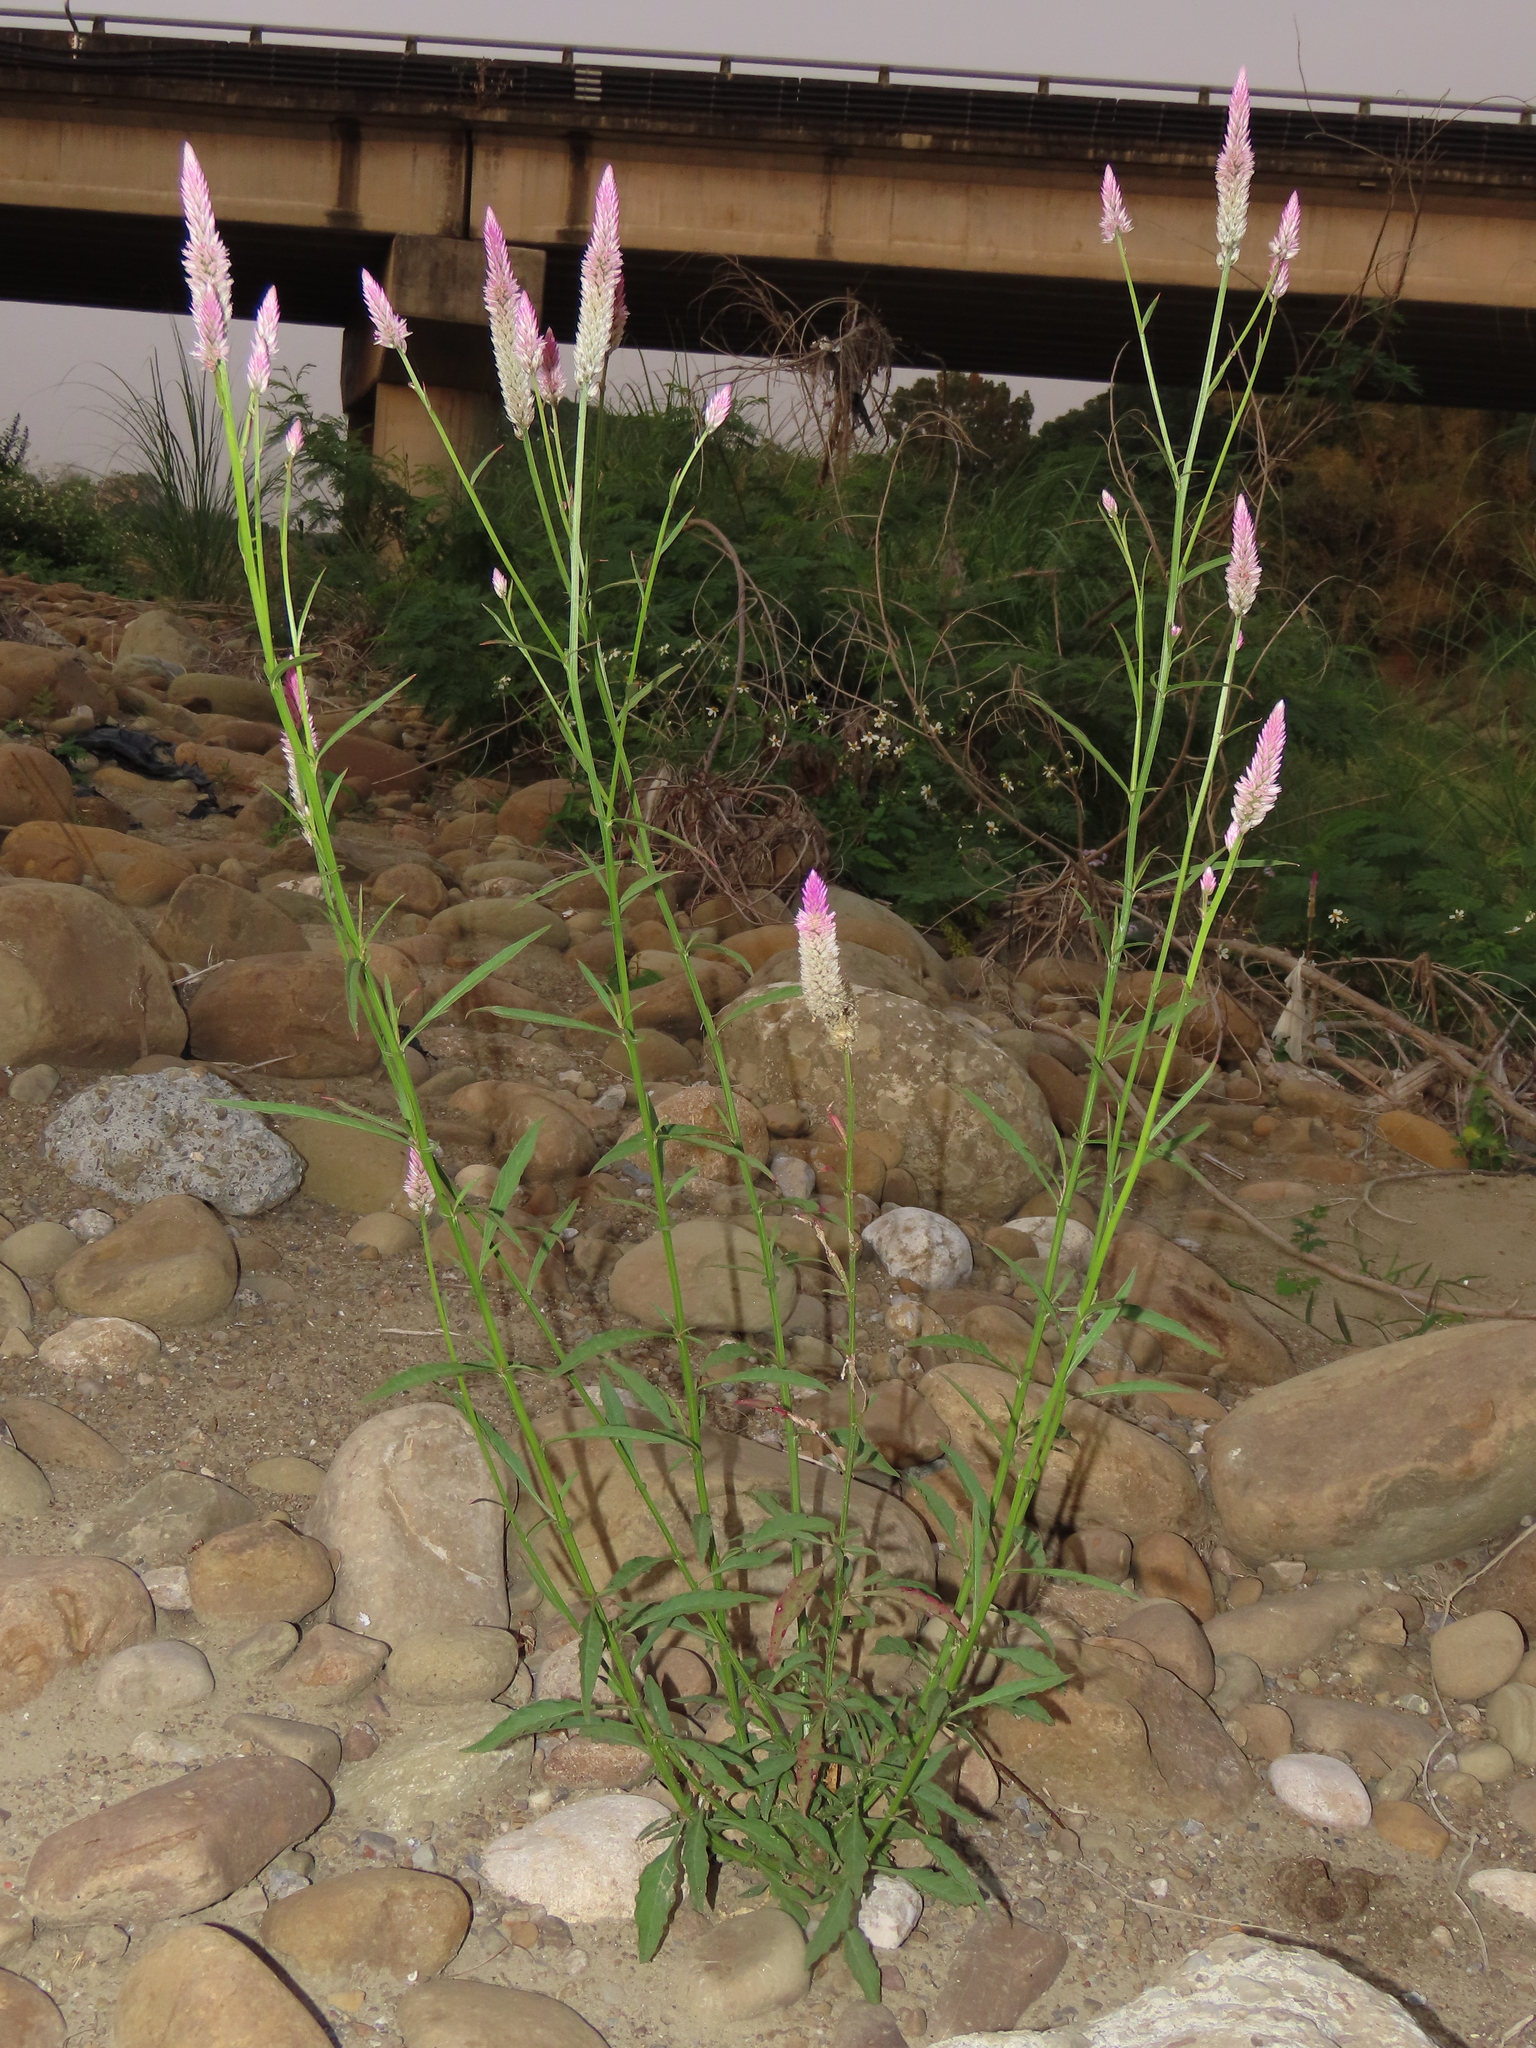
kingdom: Plantae
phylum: Tracheophyta
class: Magnoliopsida
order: Caryophyllales
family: Amaranthaceae
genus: Celosia
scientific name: Celosia argentea
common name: Feather cockscomb
